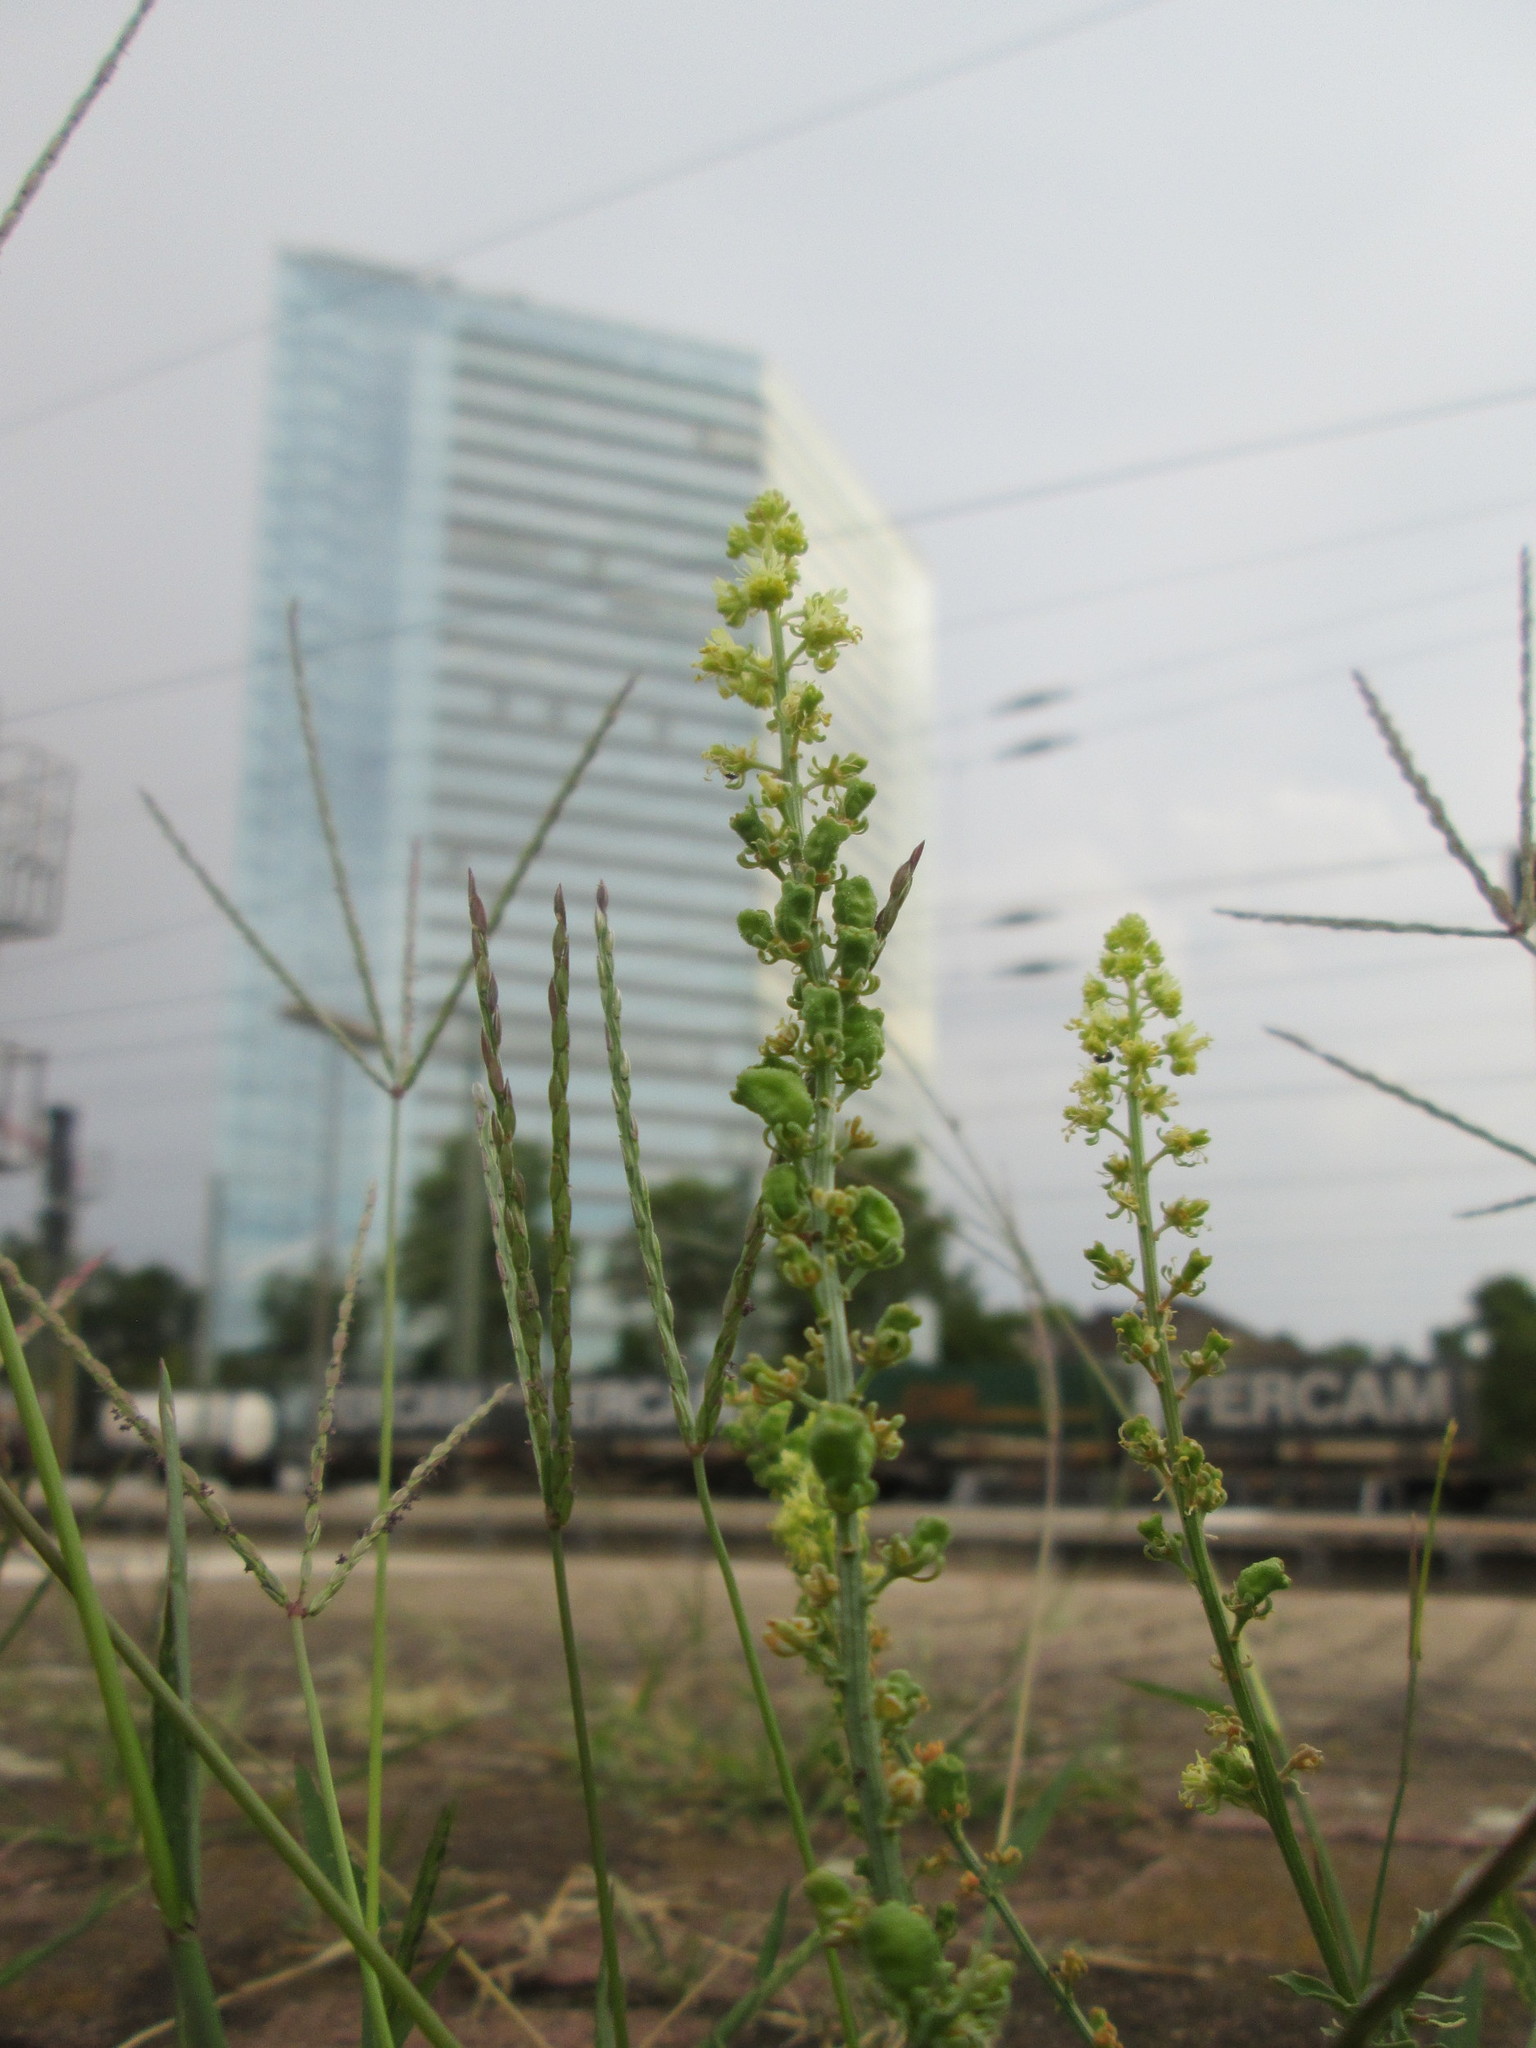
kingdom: Plantae
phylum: Tracheophyta
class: Magnoliopsida
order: Brassicales
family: Resedaceae
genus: Reseda
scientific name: Reseda lutea
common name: Wild mignonette
